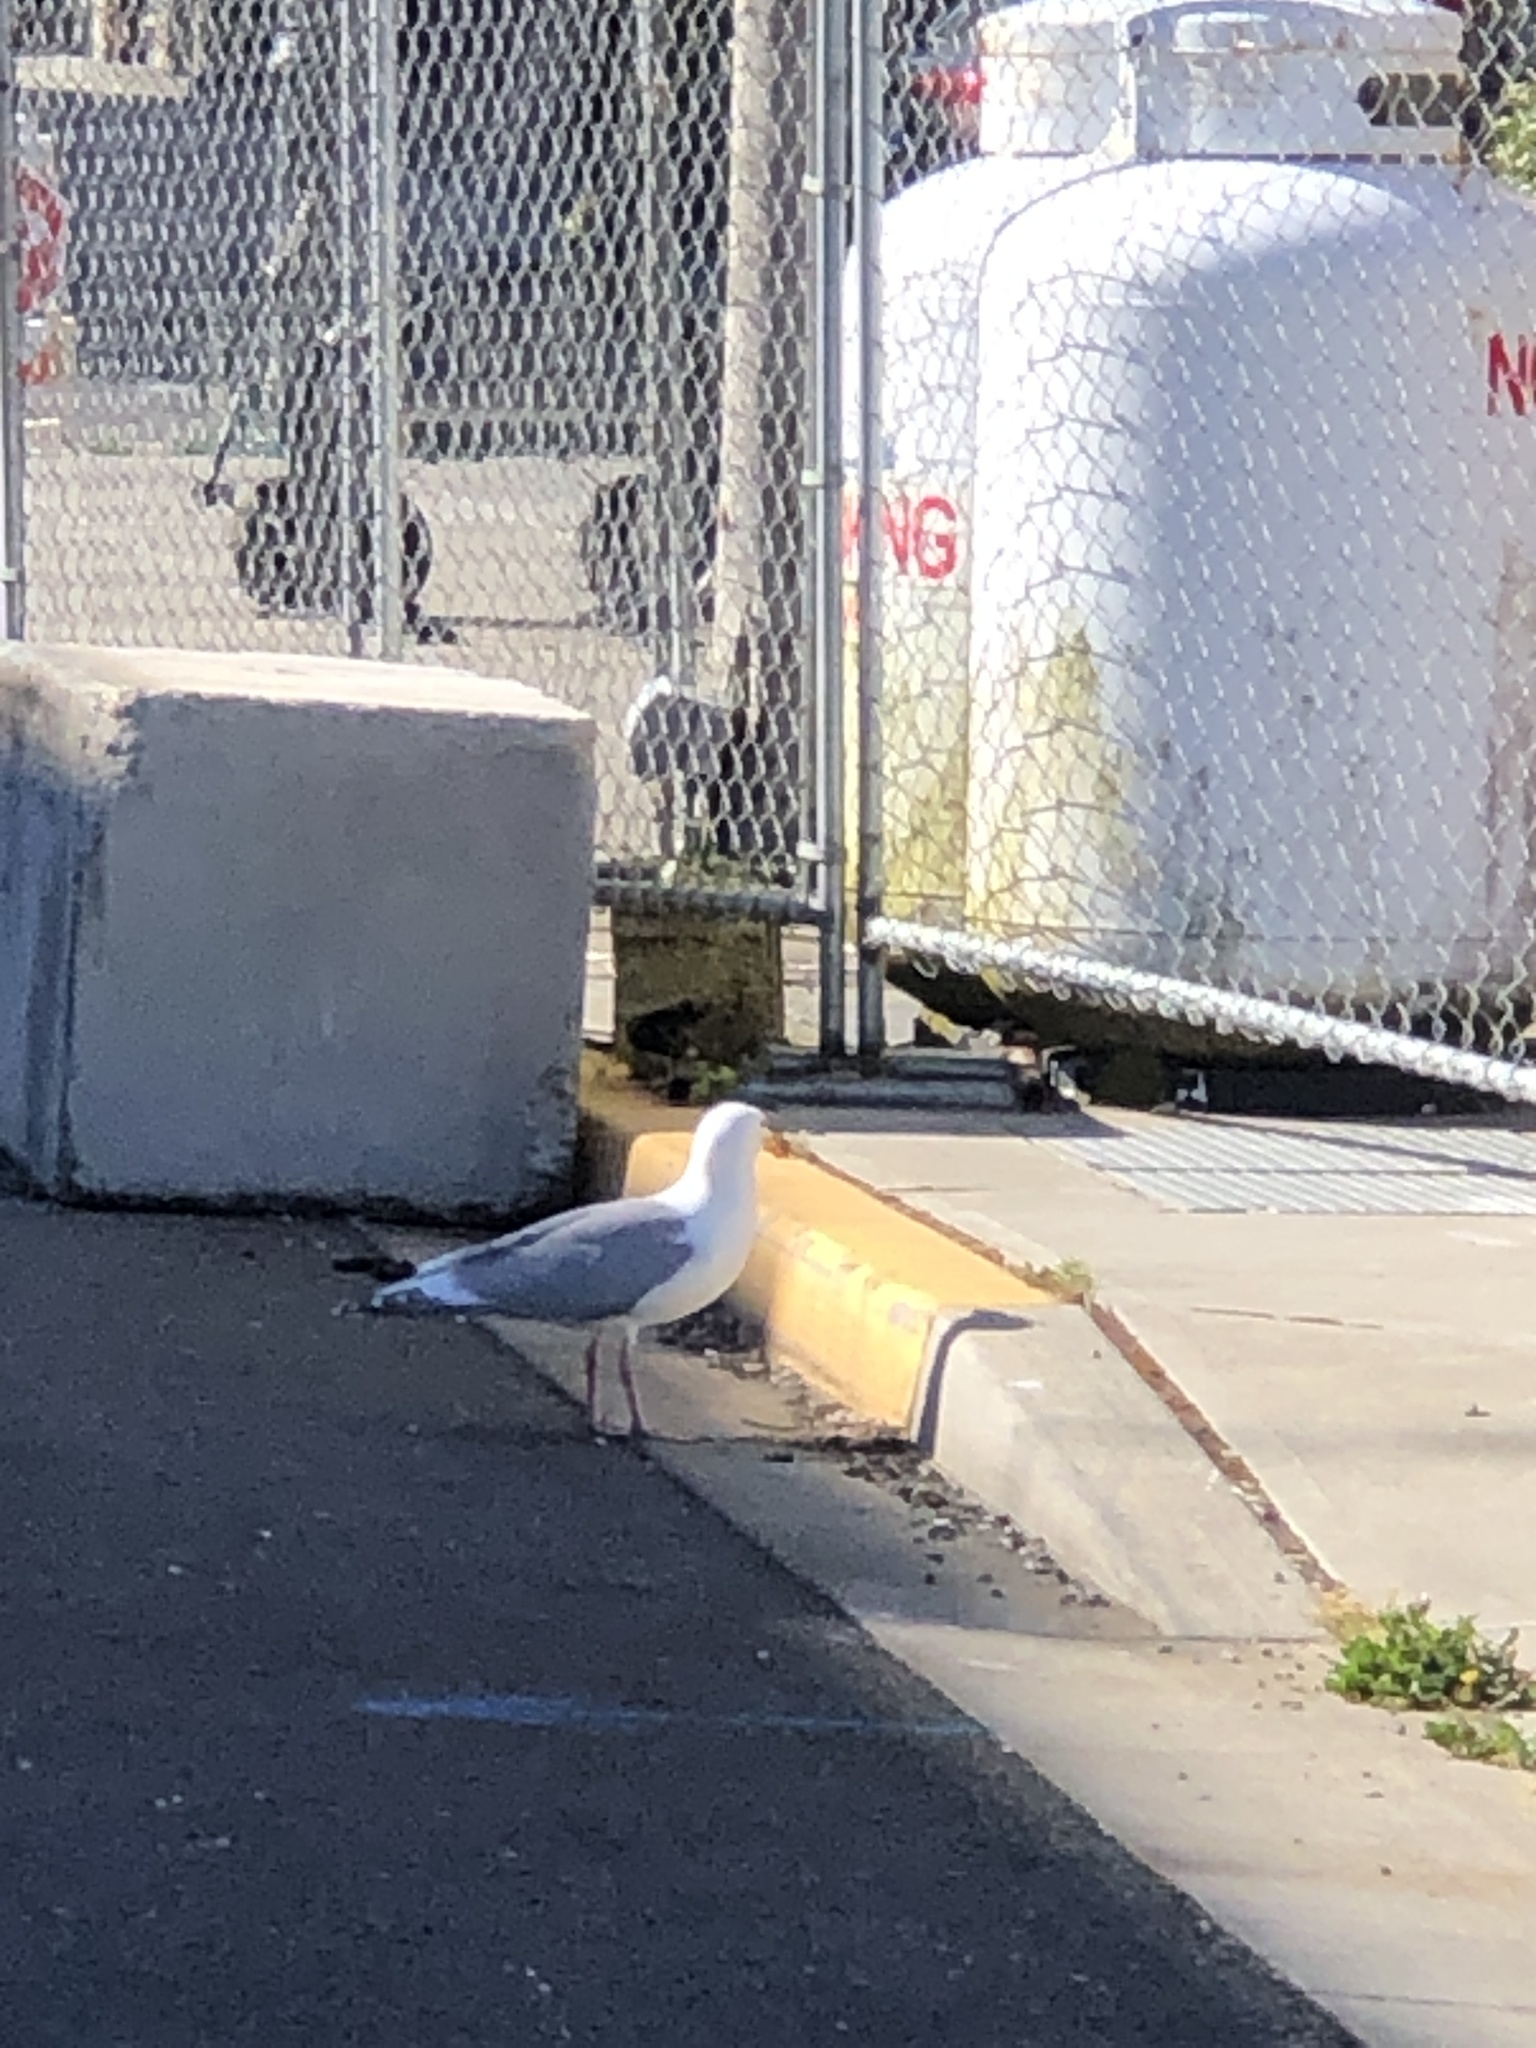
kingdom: Animalia
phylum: Chordata
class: Aves
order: Charadriiformes
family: Laridae
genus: Larus
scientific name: Larus
